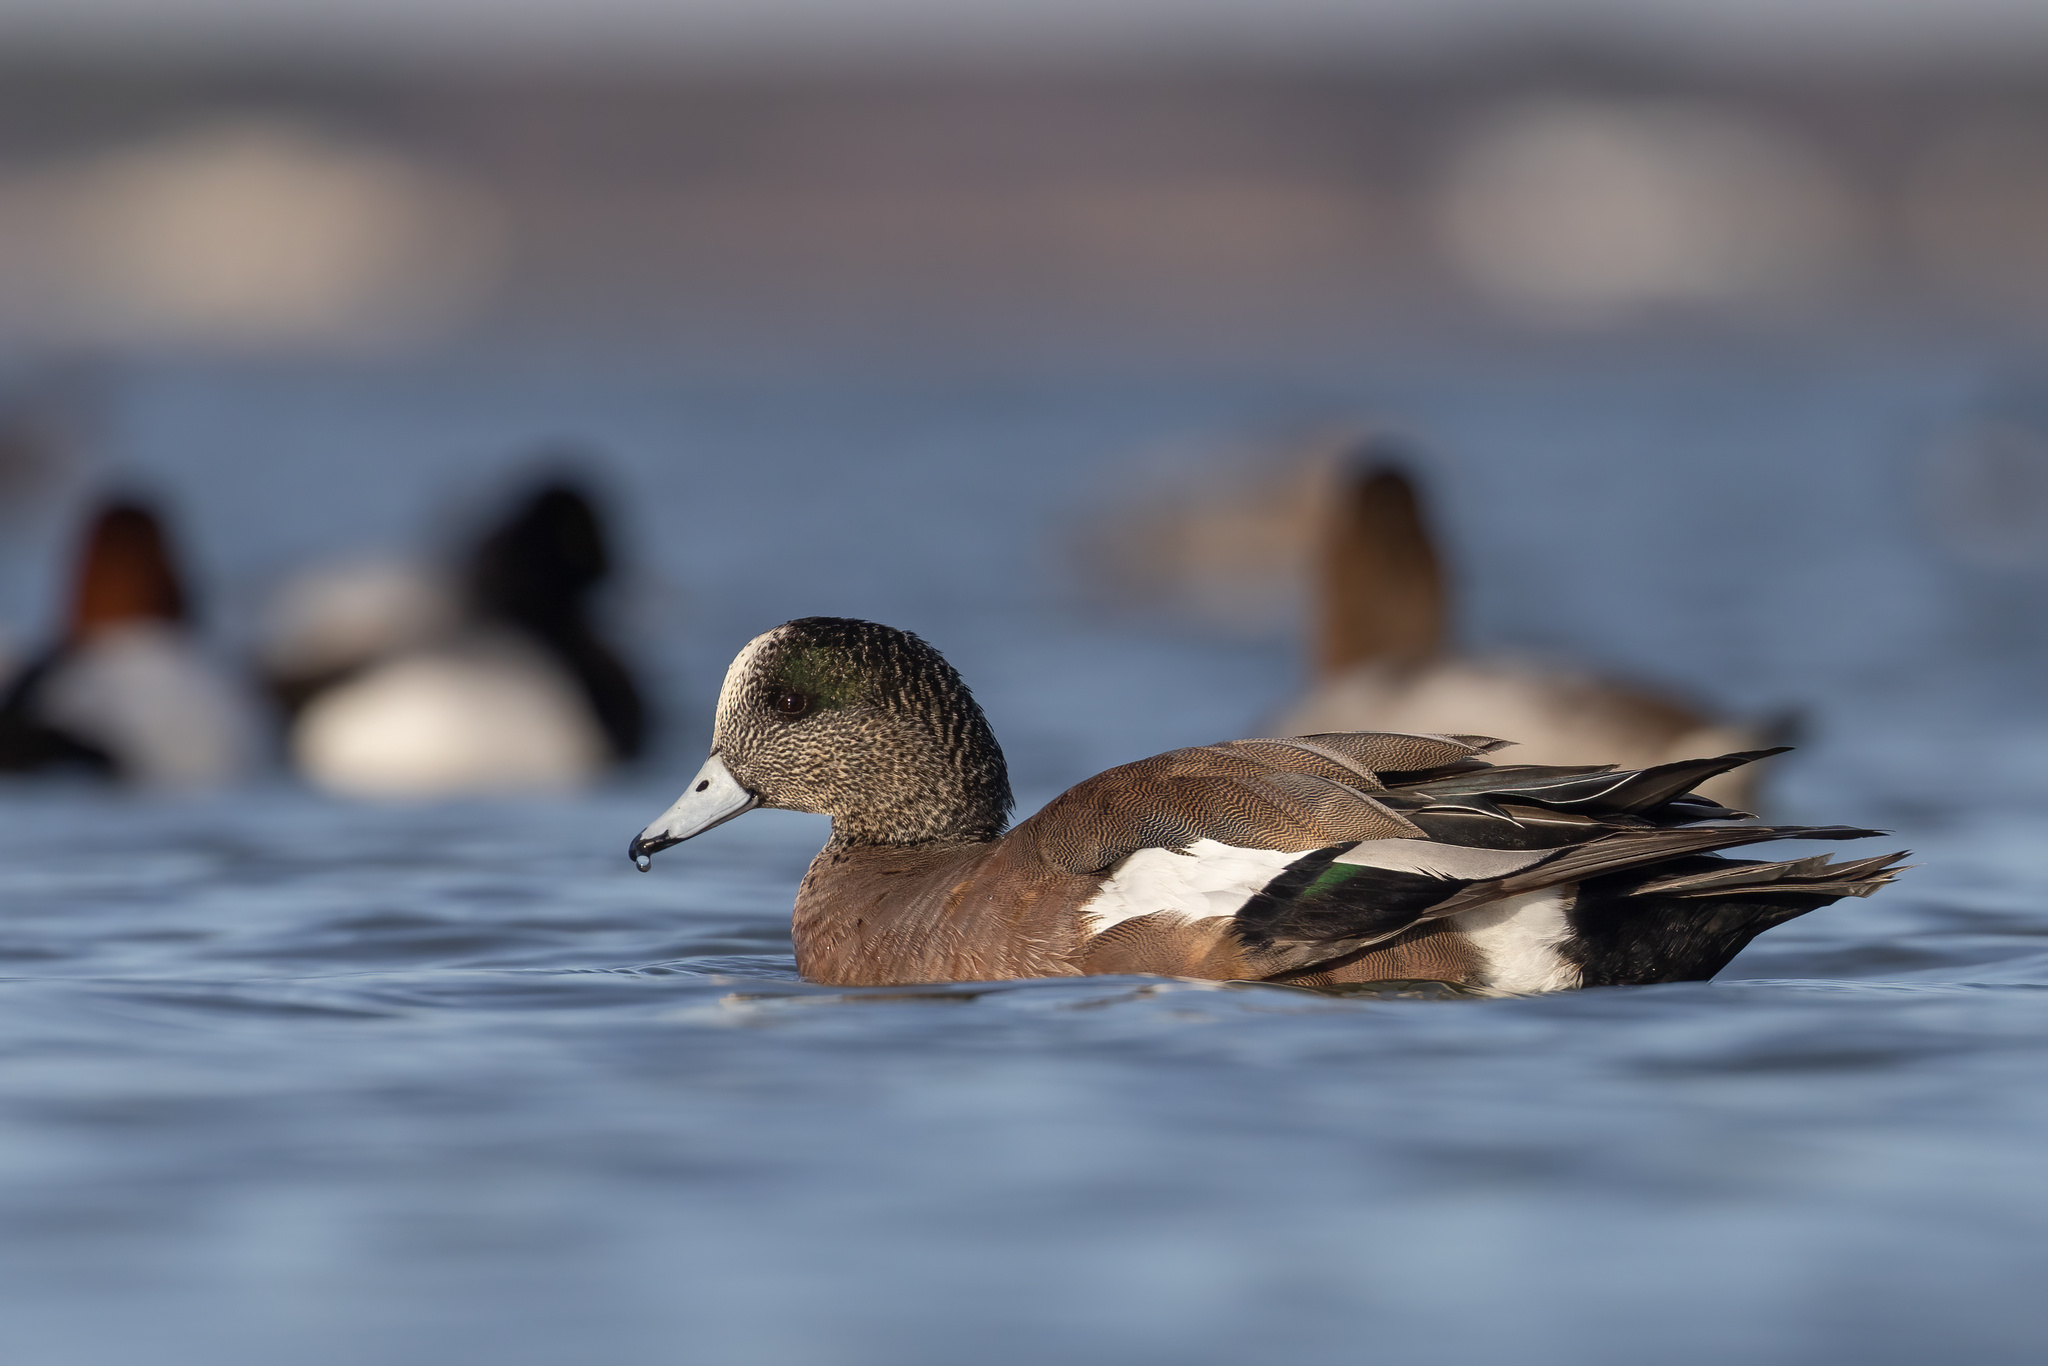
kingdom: Animalia
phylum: Chordata
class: Aves
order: Anseriformes
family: Anatidae
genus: Mareca
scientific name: Mareca americana
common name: American wigeon
